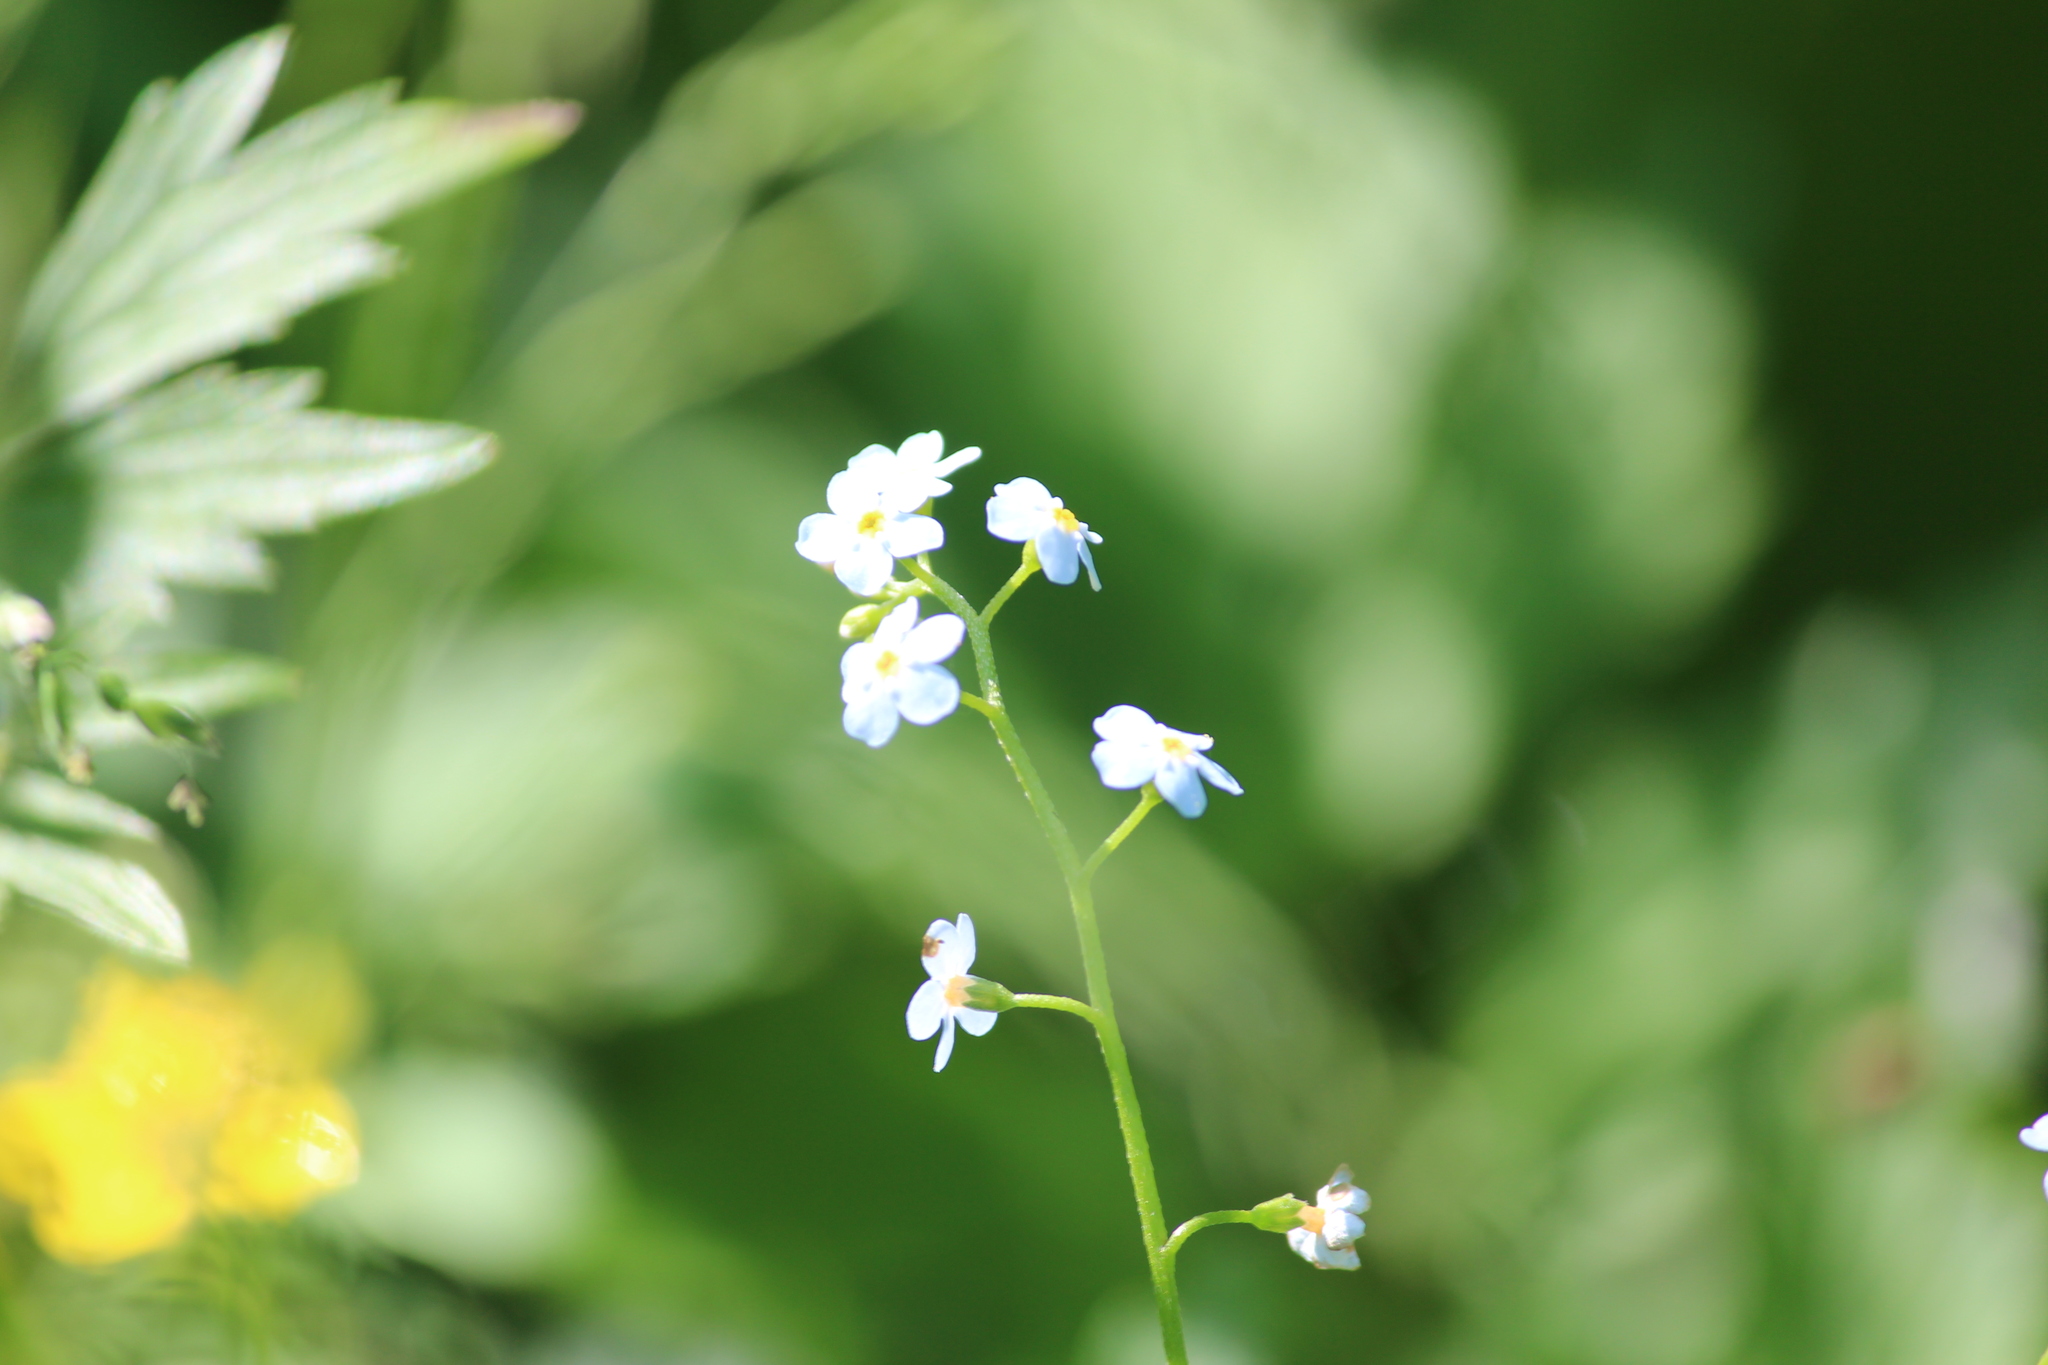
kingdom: Plantae
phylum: Tracheophyta
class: Magnoliopsida
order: Boraginales
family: Boraginaceae
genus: Myosotis
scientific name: Myosotis scorpioides
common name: Water forget-me-not
